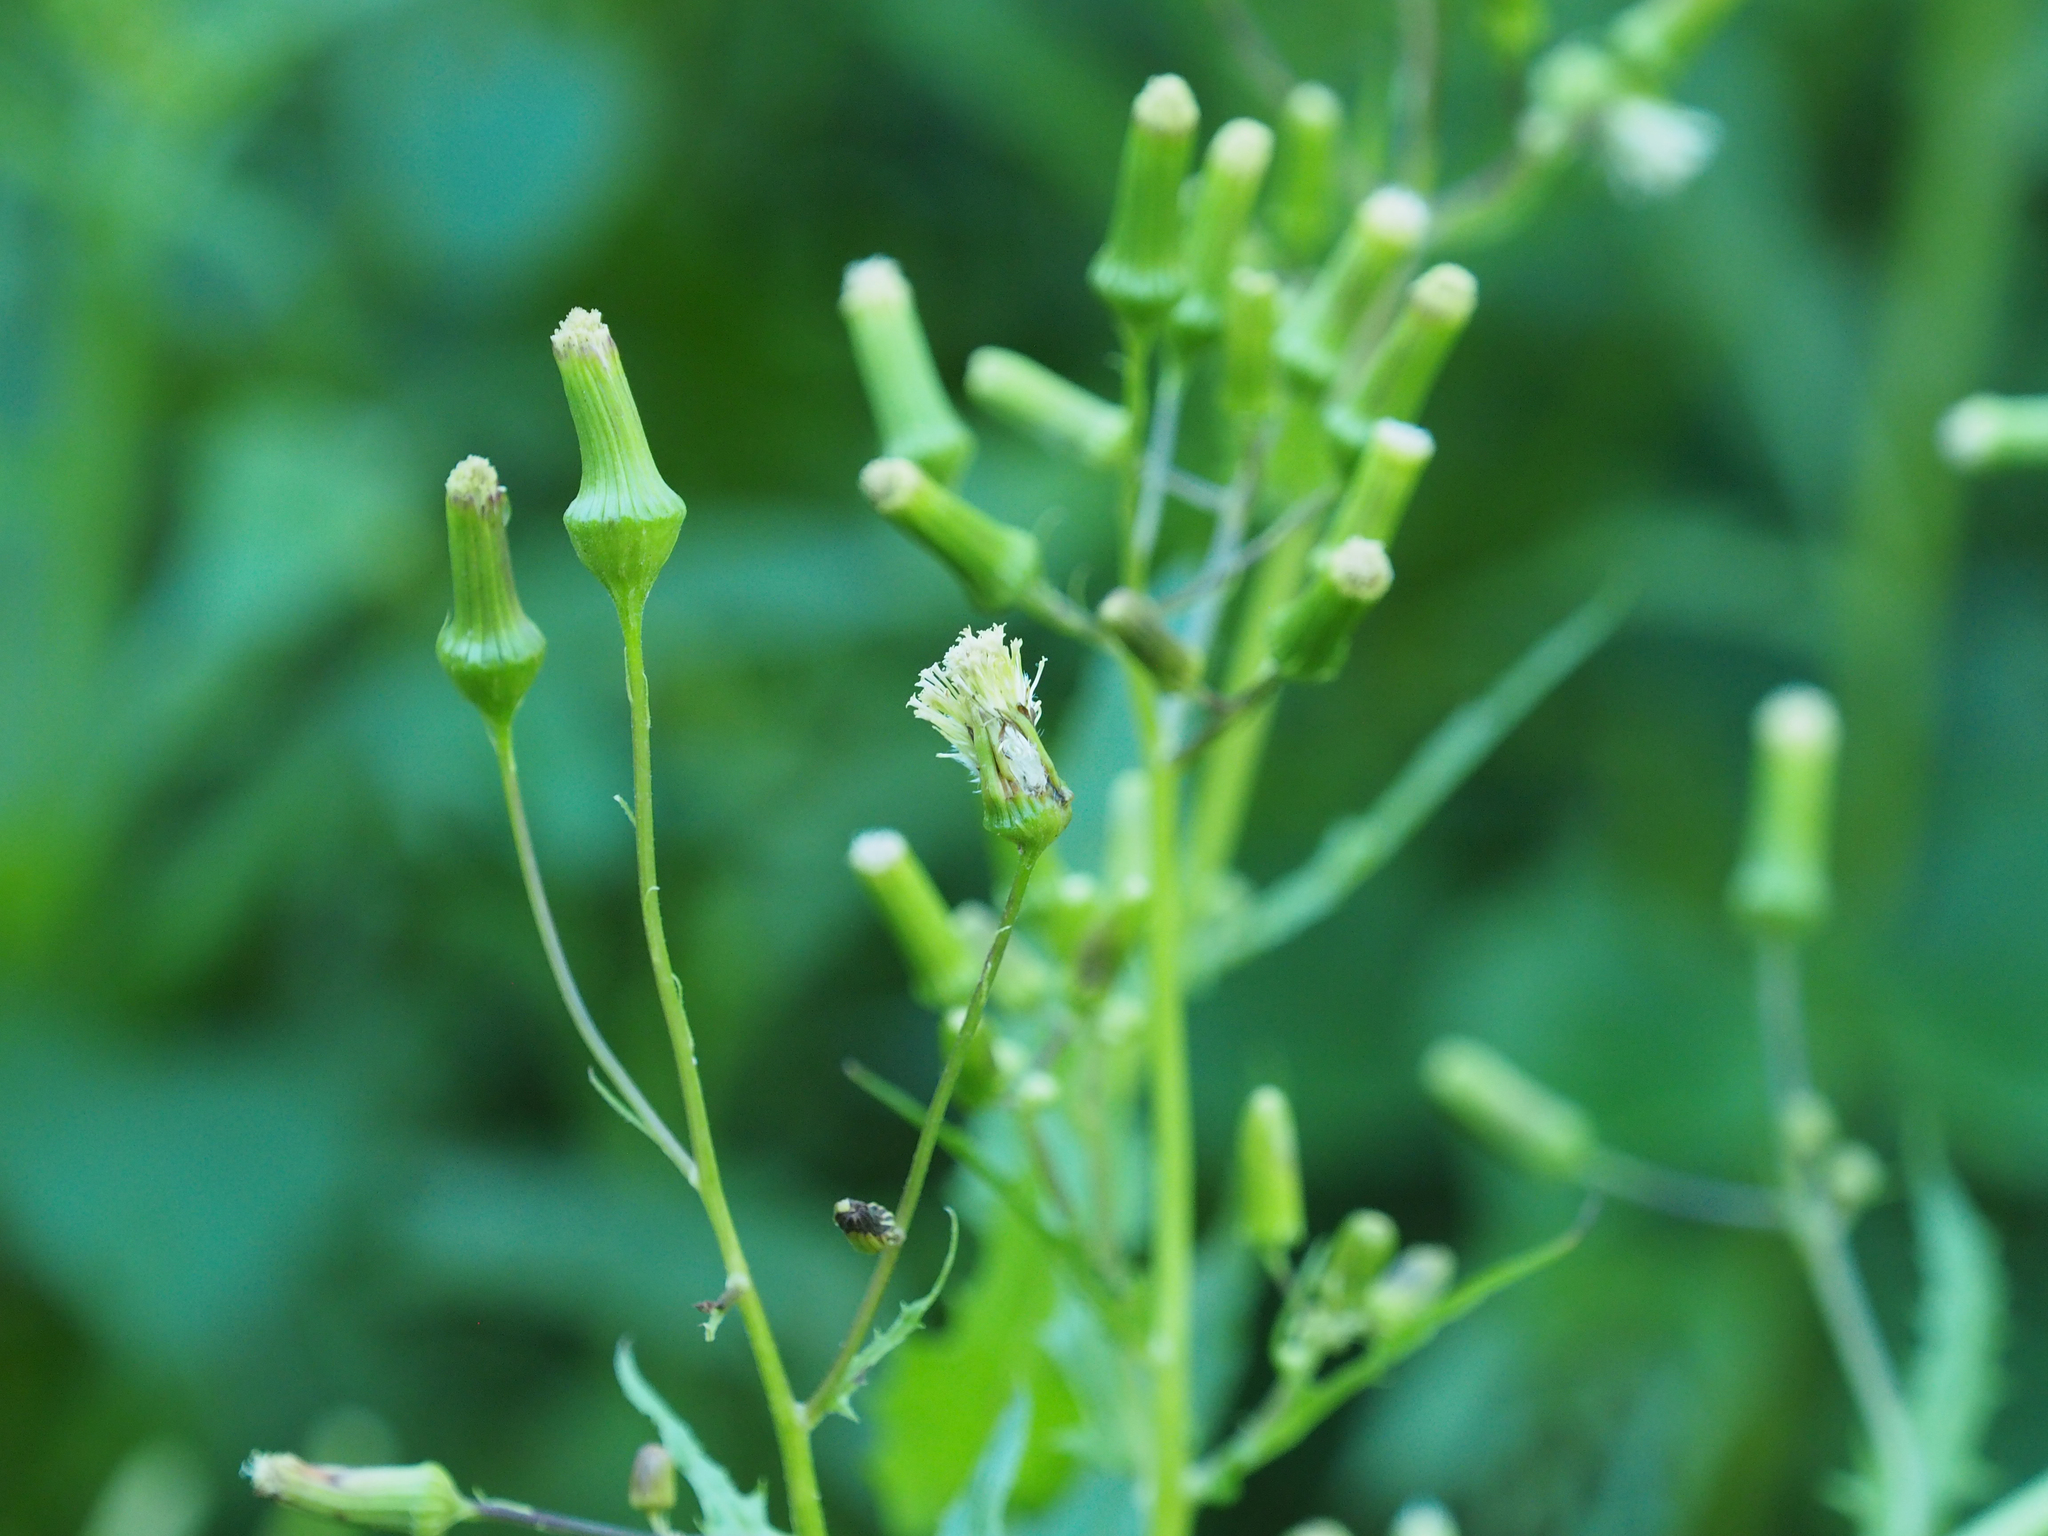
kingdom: Plantae
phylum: Tracheophyta
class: Magnoliopsida
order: Asterales
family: Asteraceae
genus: Erechtites
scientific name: Erechtites hieraciifolius
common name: American burnweed
